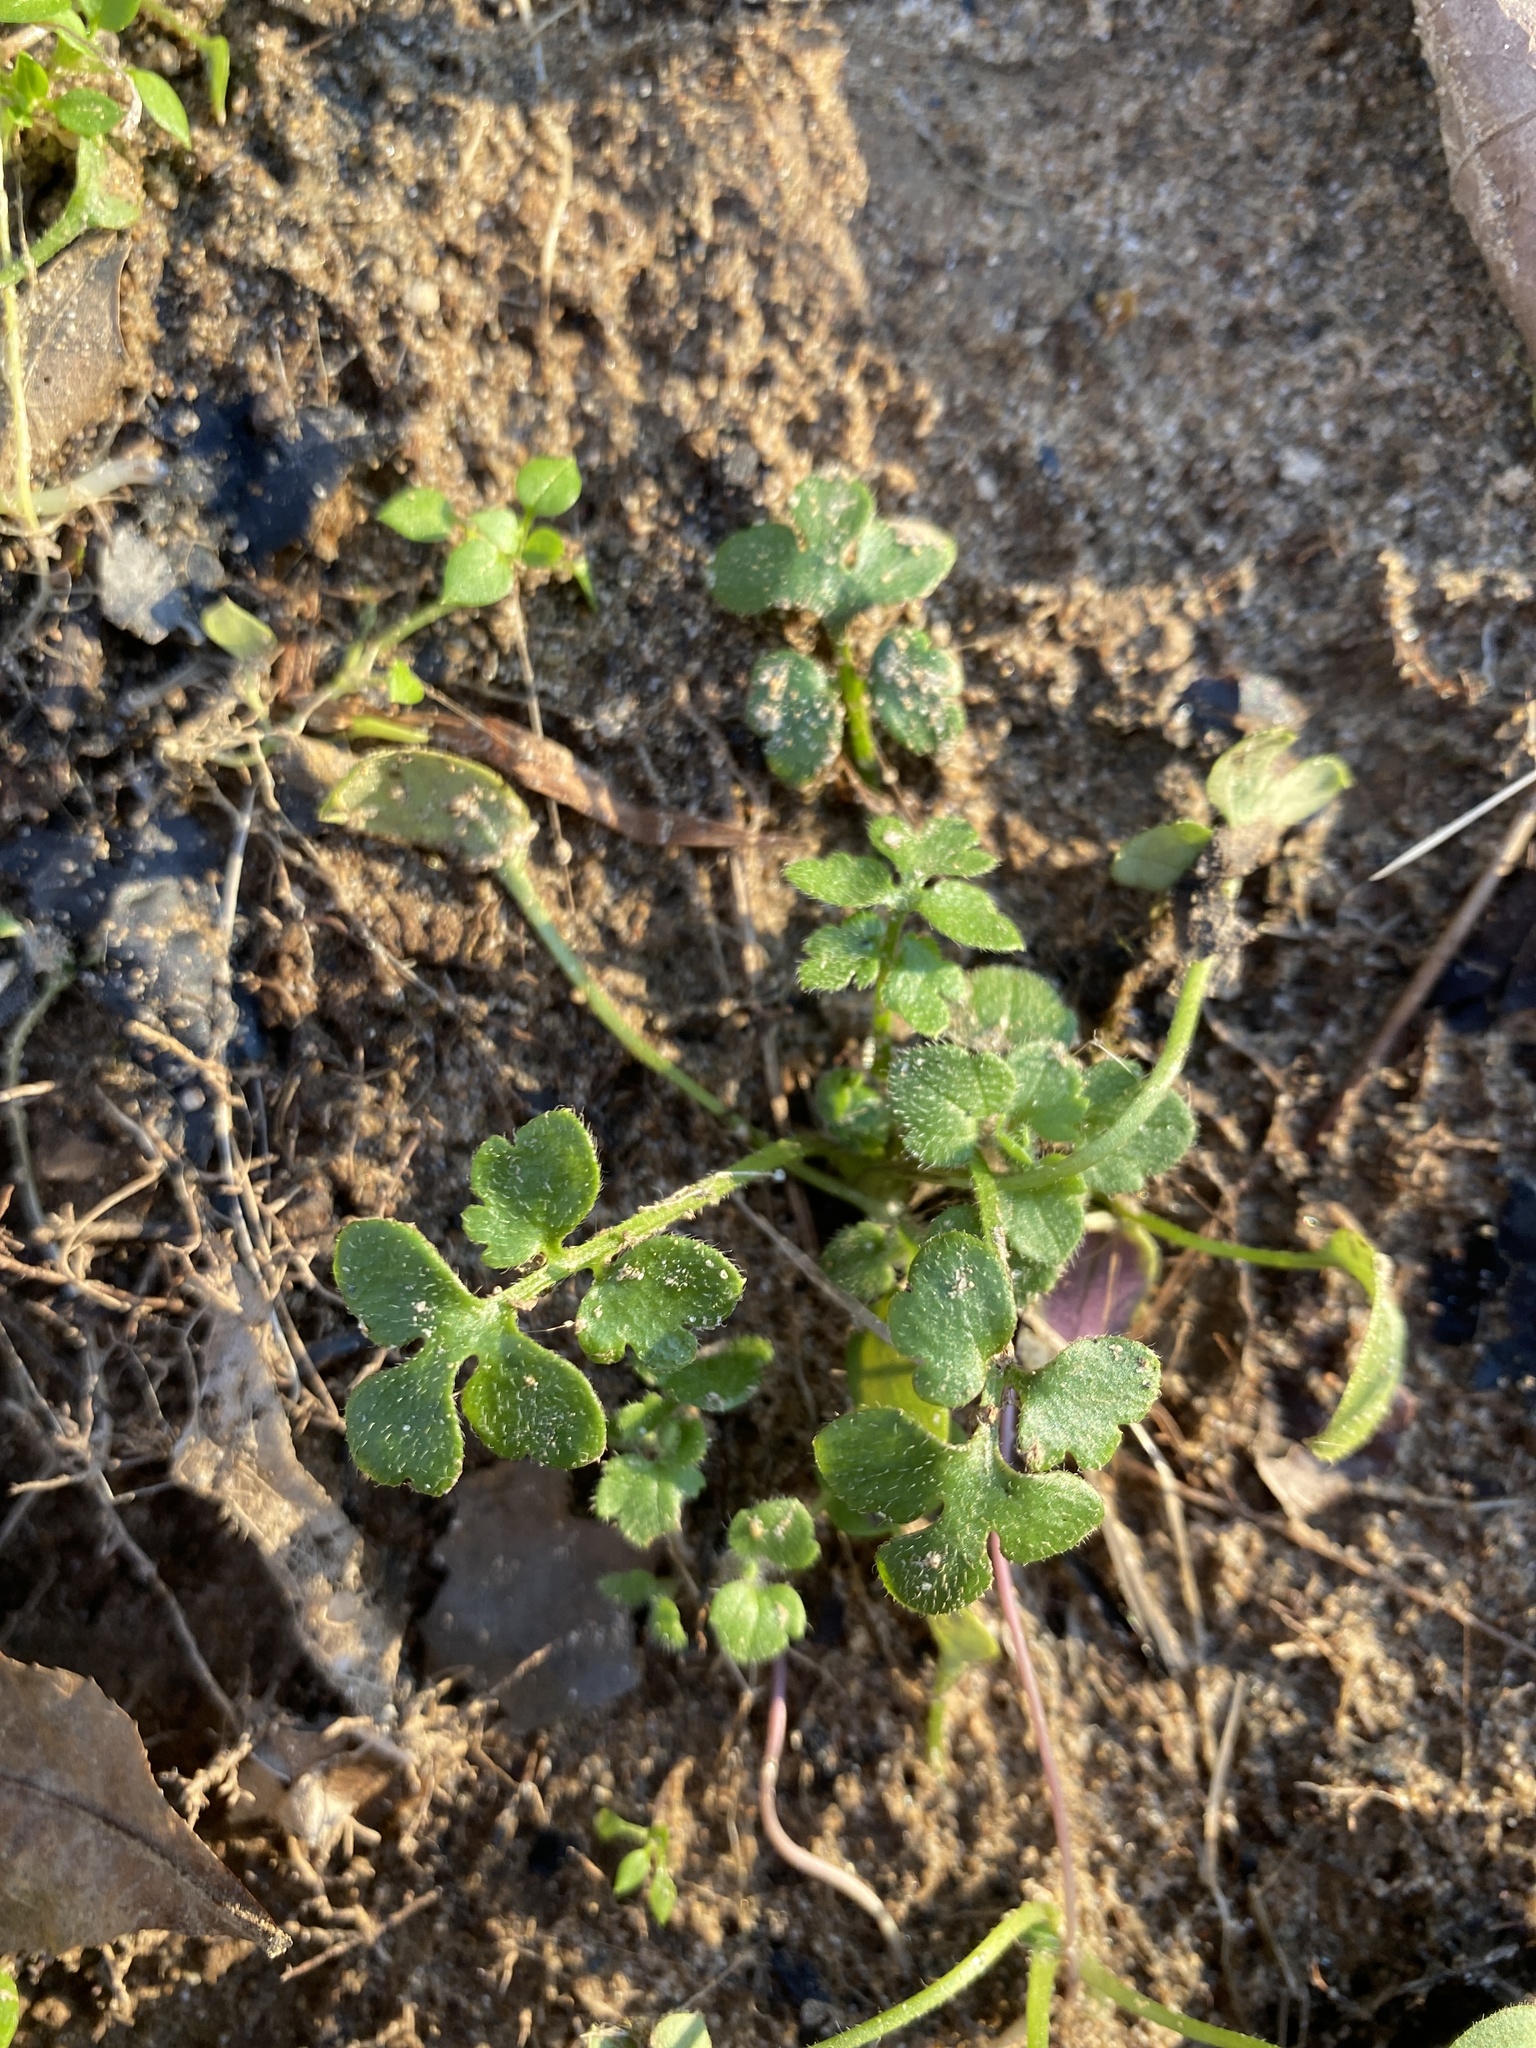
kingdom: Plantae
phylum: Tracheophyta
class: Magnoliopsida
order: Boraginales
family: Hydrophyllaceae
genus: Nemophila
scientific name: Nemophila aphylla
